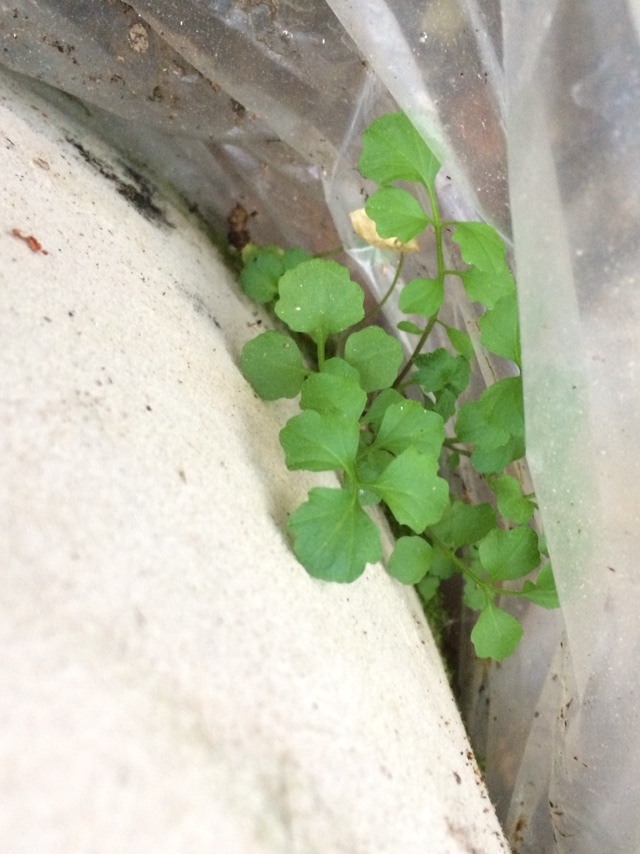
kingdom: Plantae
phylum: Tracheophyta
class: Magnoliopsida
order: Brassicales
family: Brassicaceae
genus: Cardamine
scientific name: Cardamine hirsuta
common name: Hairy bittercress
